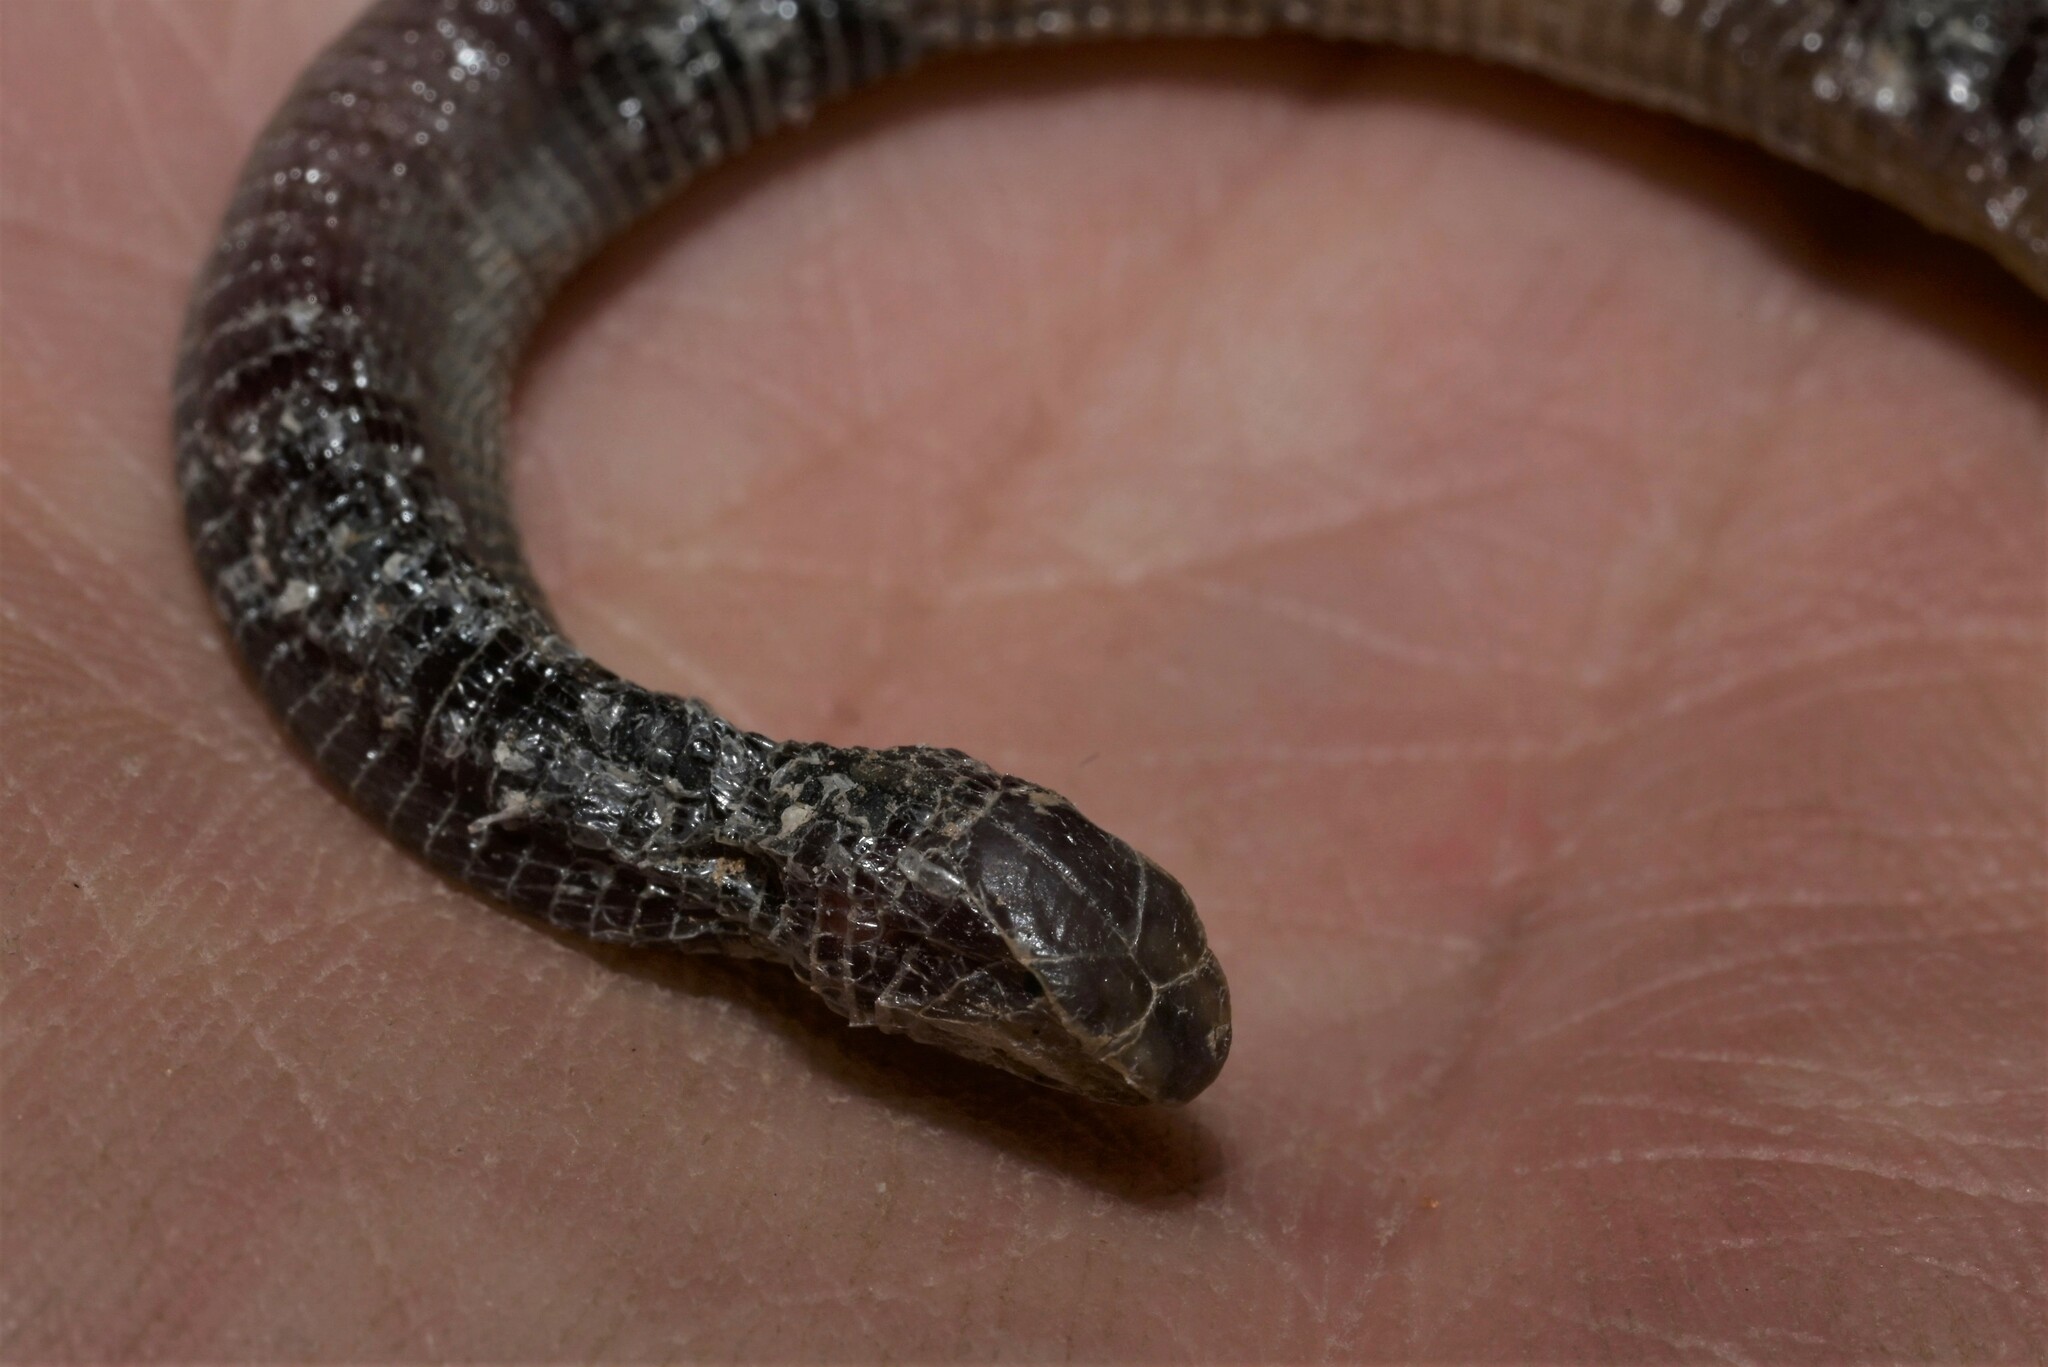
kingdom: Animalia
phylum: Chordata
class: Squamata
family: Trogonophidae
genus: Diplometopon
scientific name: Diplometopon zarudnyi
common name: Zarudnyi's worm lizard
